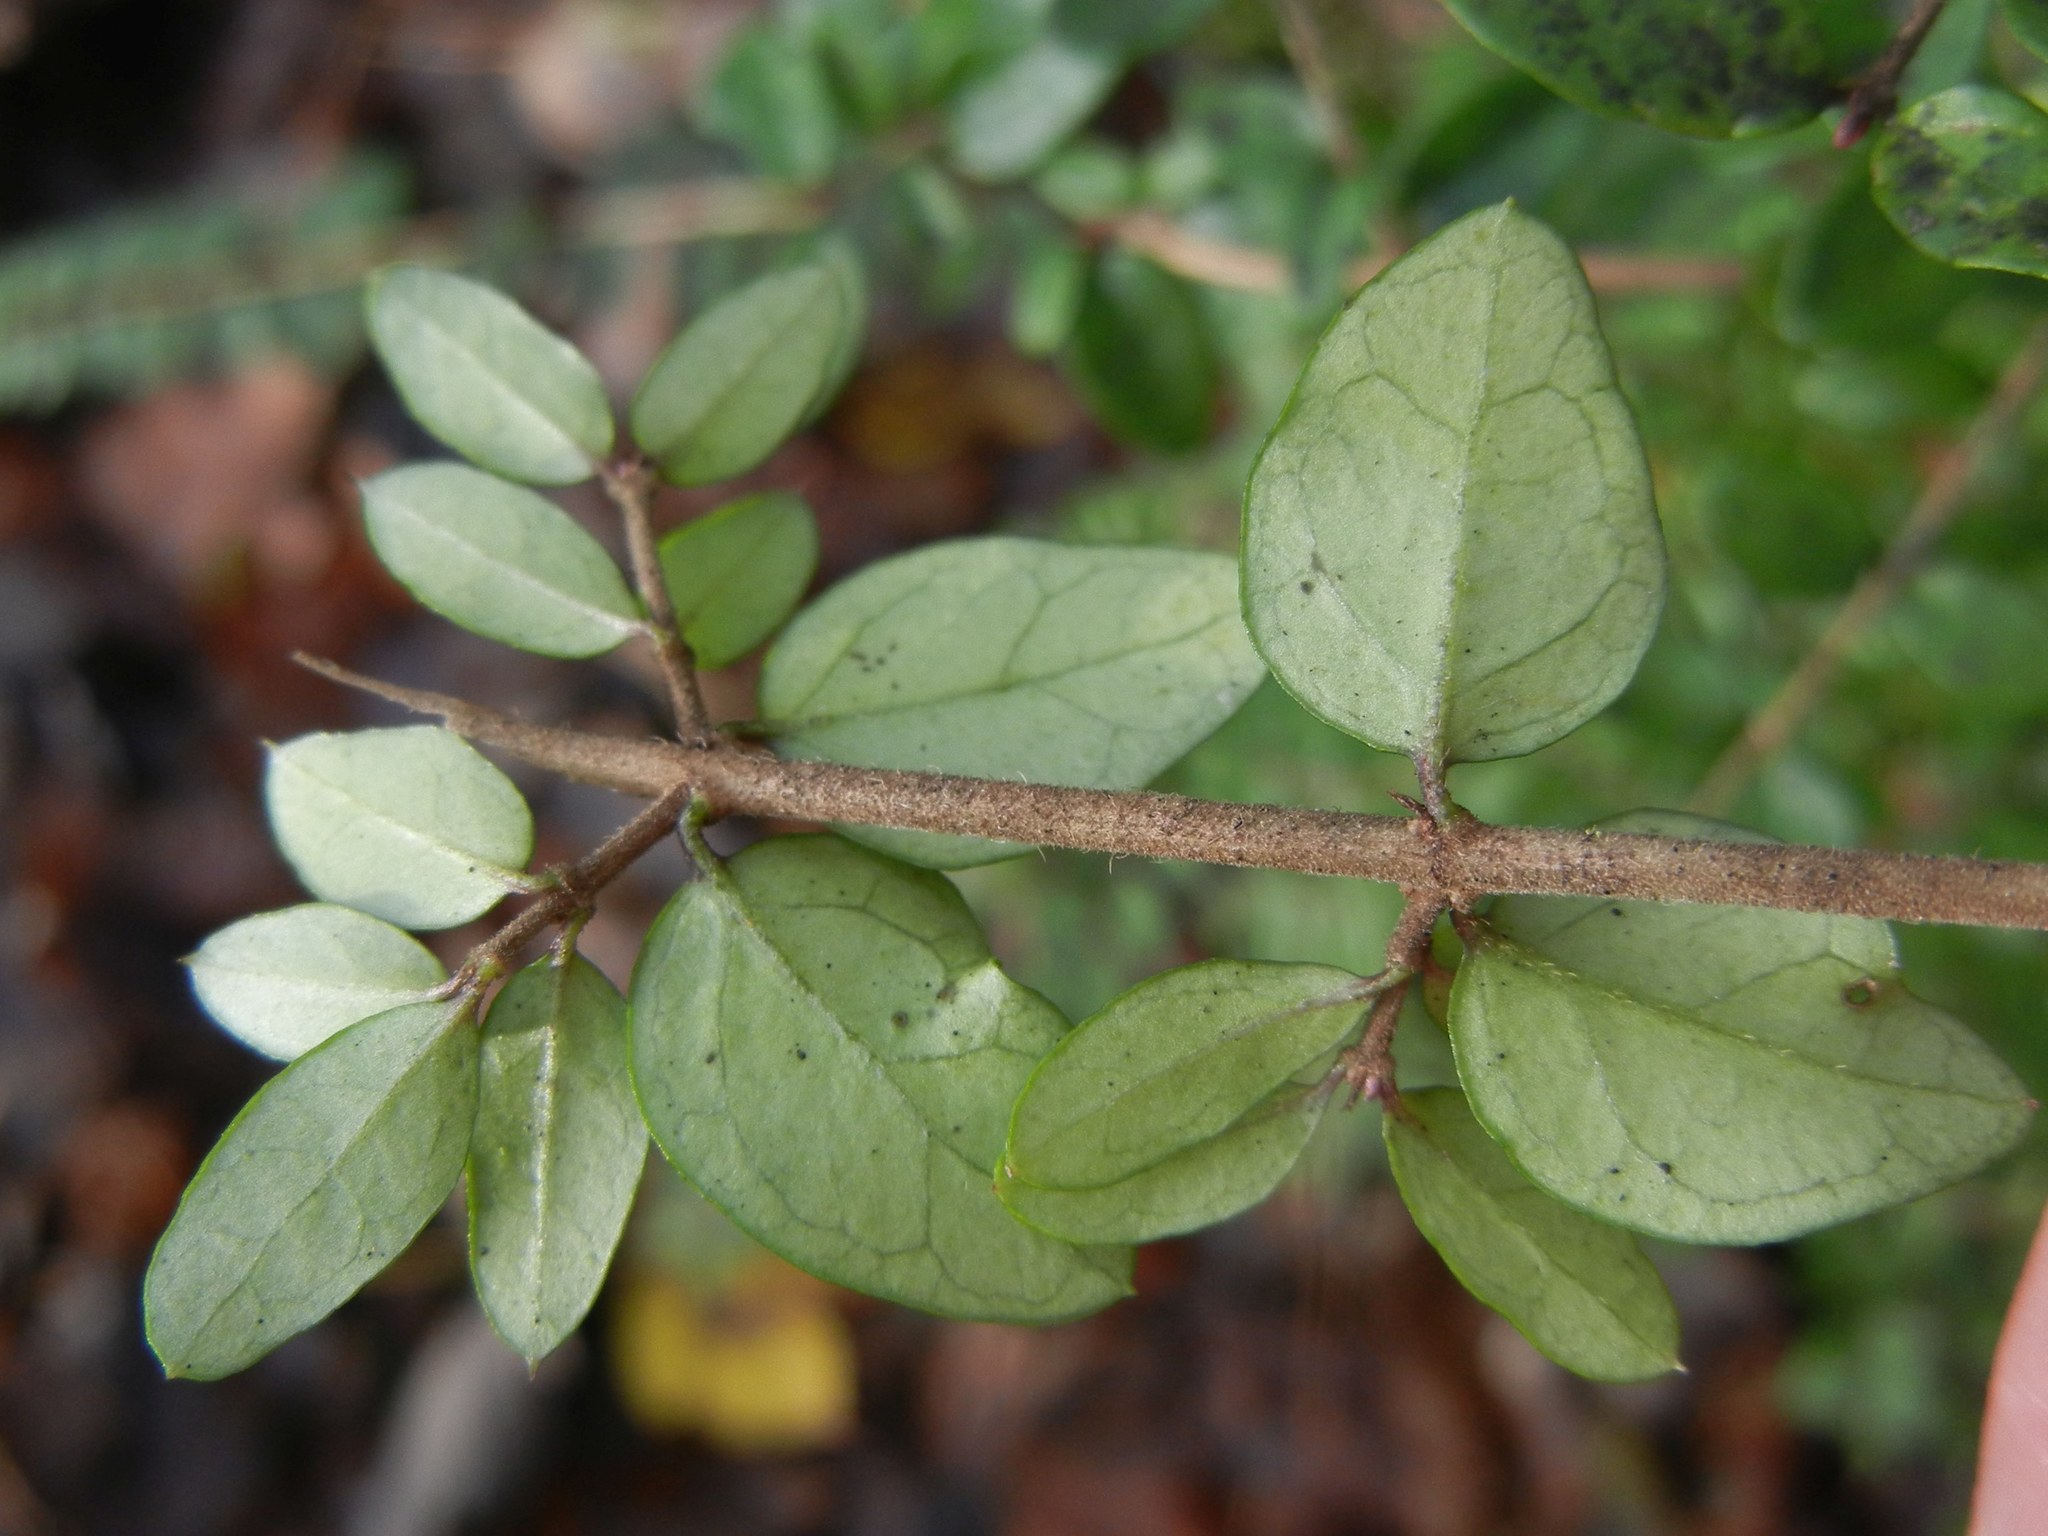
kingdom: Plantae
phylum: Tracheophyta
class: Magnoliopsida
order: Dipsacales
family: Caprifoliaceae
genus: Lonicera
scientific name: Lonicera pileata
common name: Box-leaved honeysuckle
